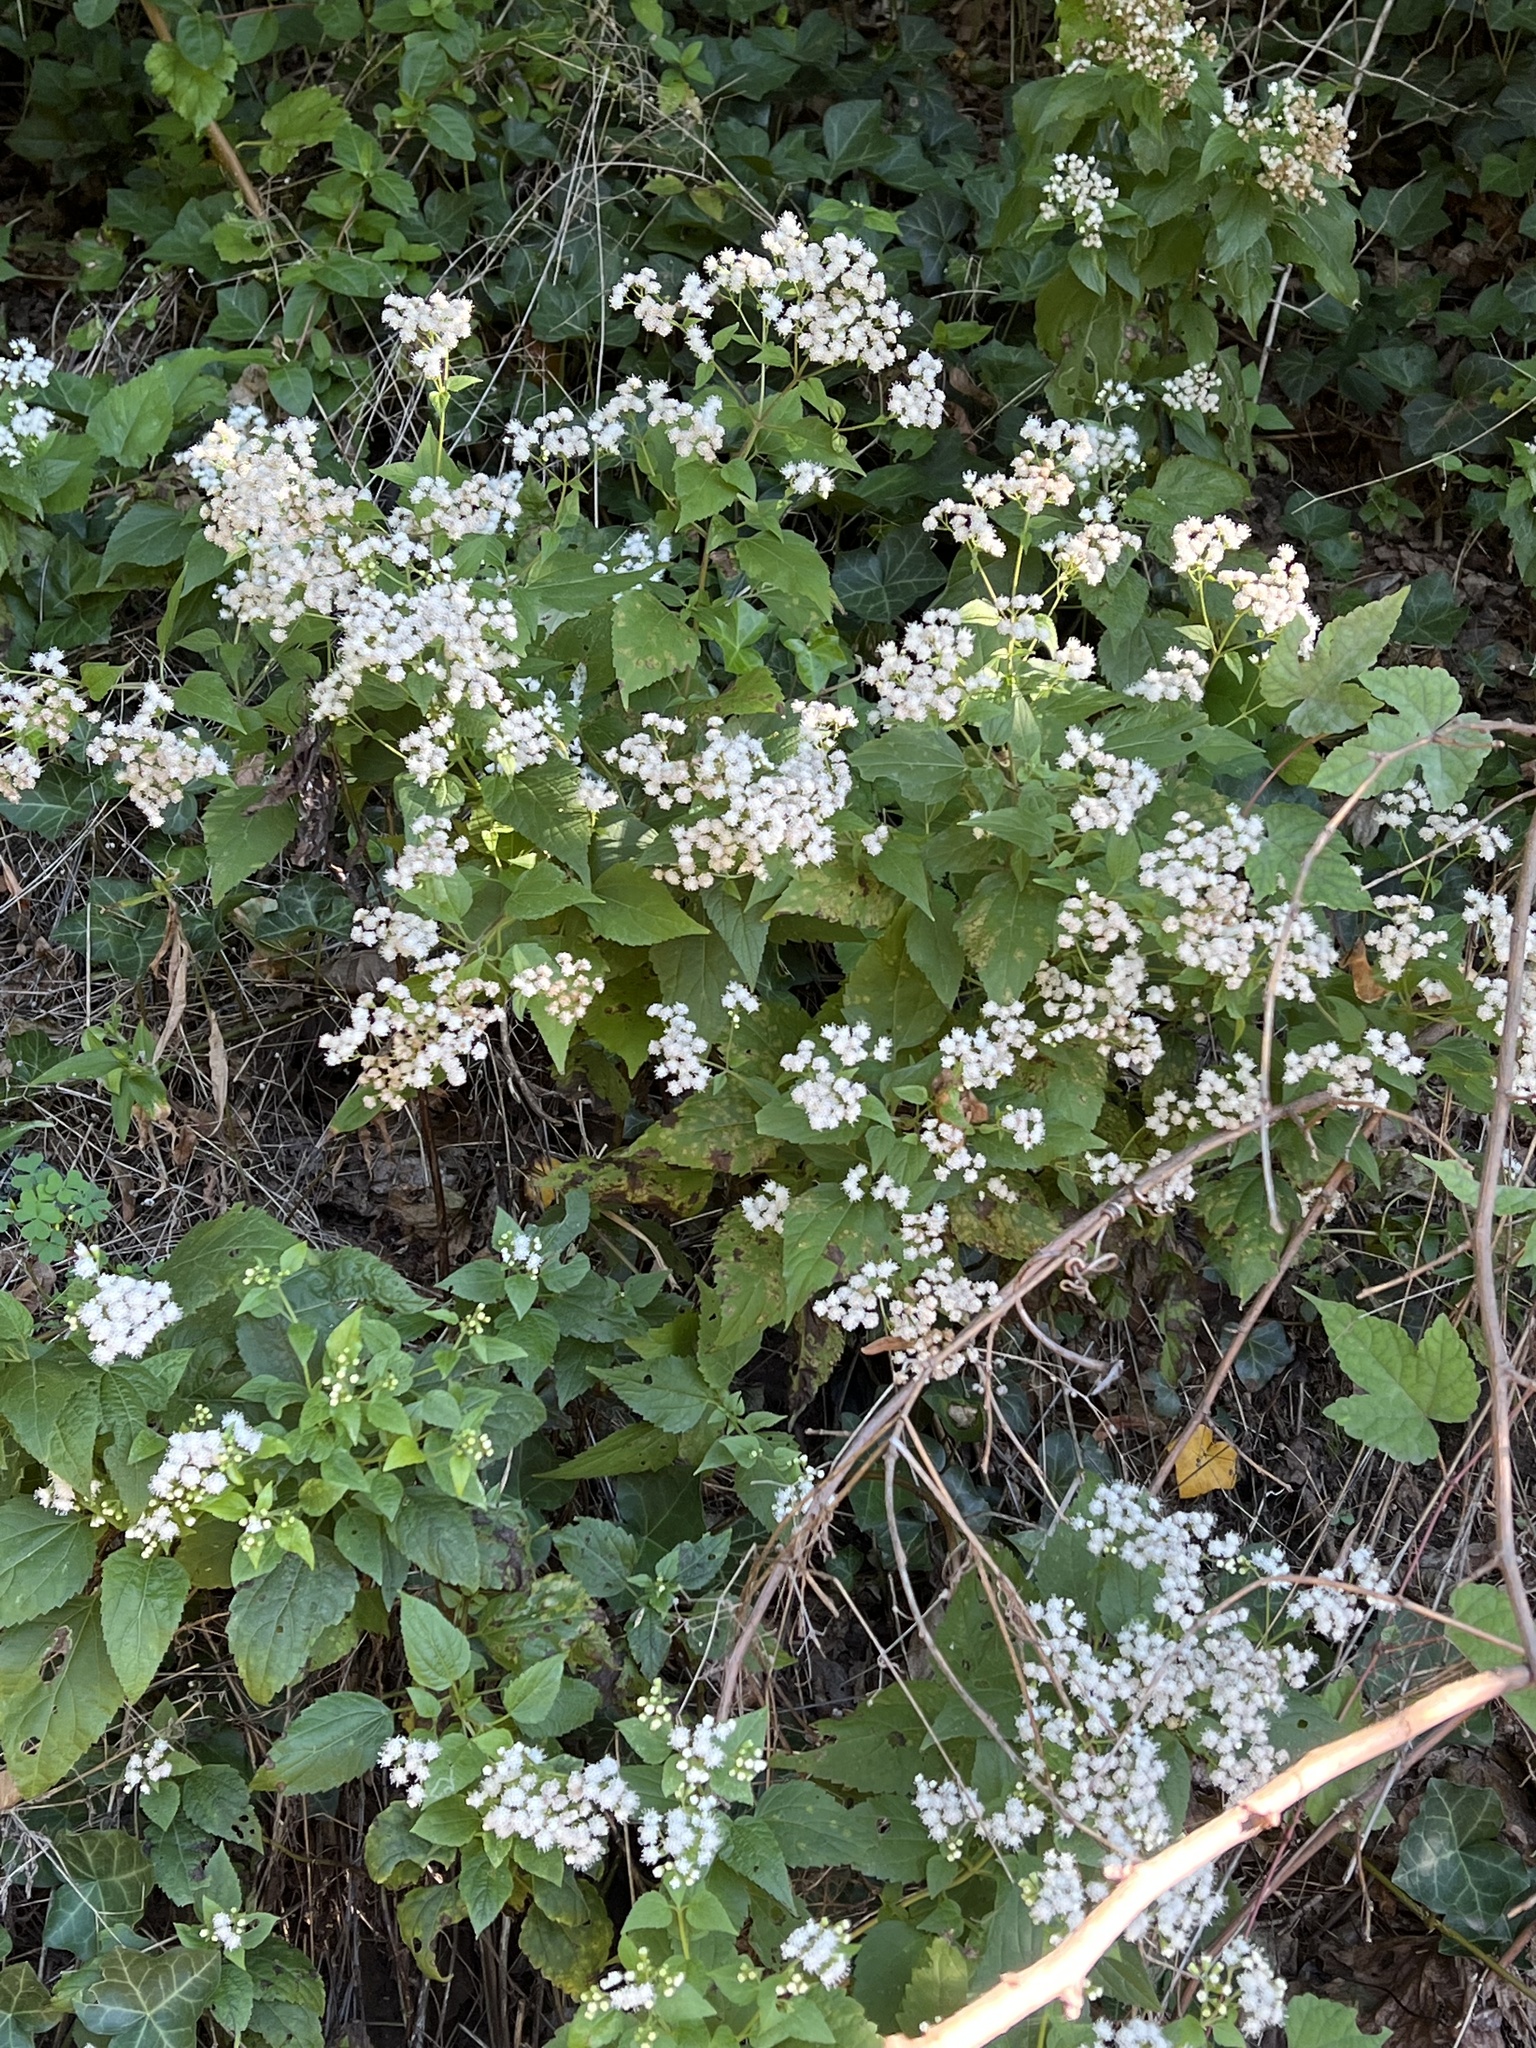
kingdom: Plantae
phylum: Tracheophyta
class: Magnoliopsida
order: Asterales
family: Asteraceae
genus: Ageratina
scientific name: Ageratina altissima
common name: White snakeroot
